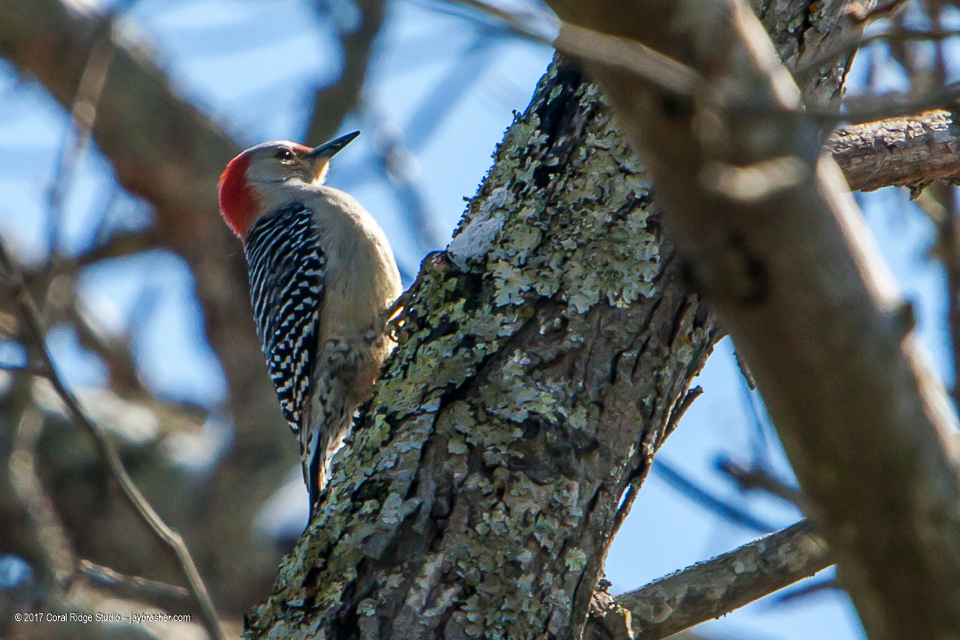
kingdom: Animalia
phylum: Chordata
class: Aves
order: Piciformes
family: Picidae
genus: Melanerpes
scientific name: Melanerpes carolinus
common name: Red-bellied woodpecker
